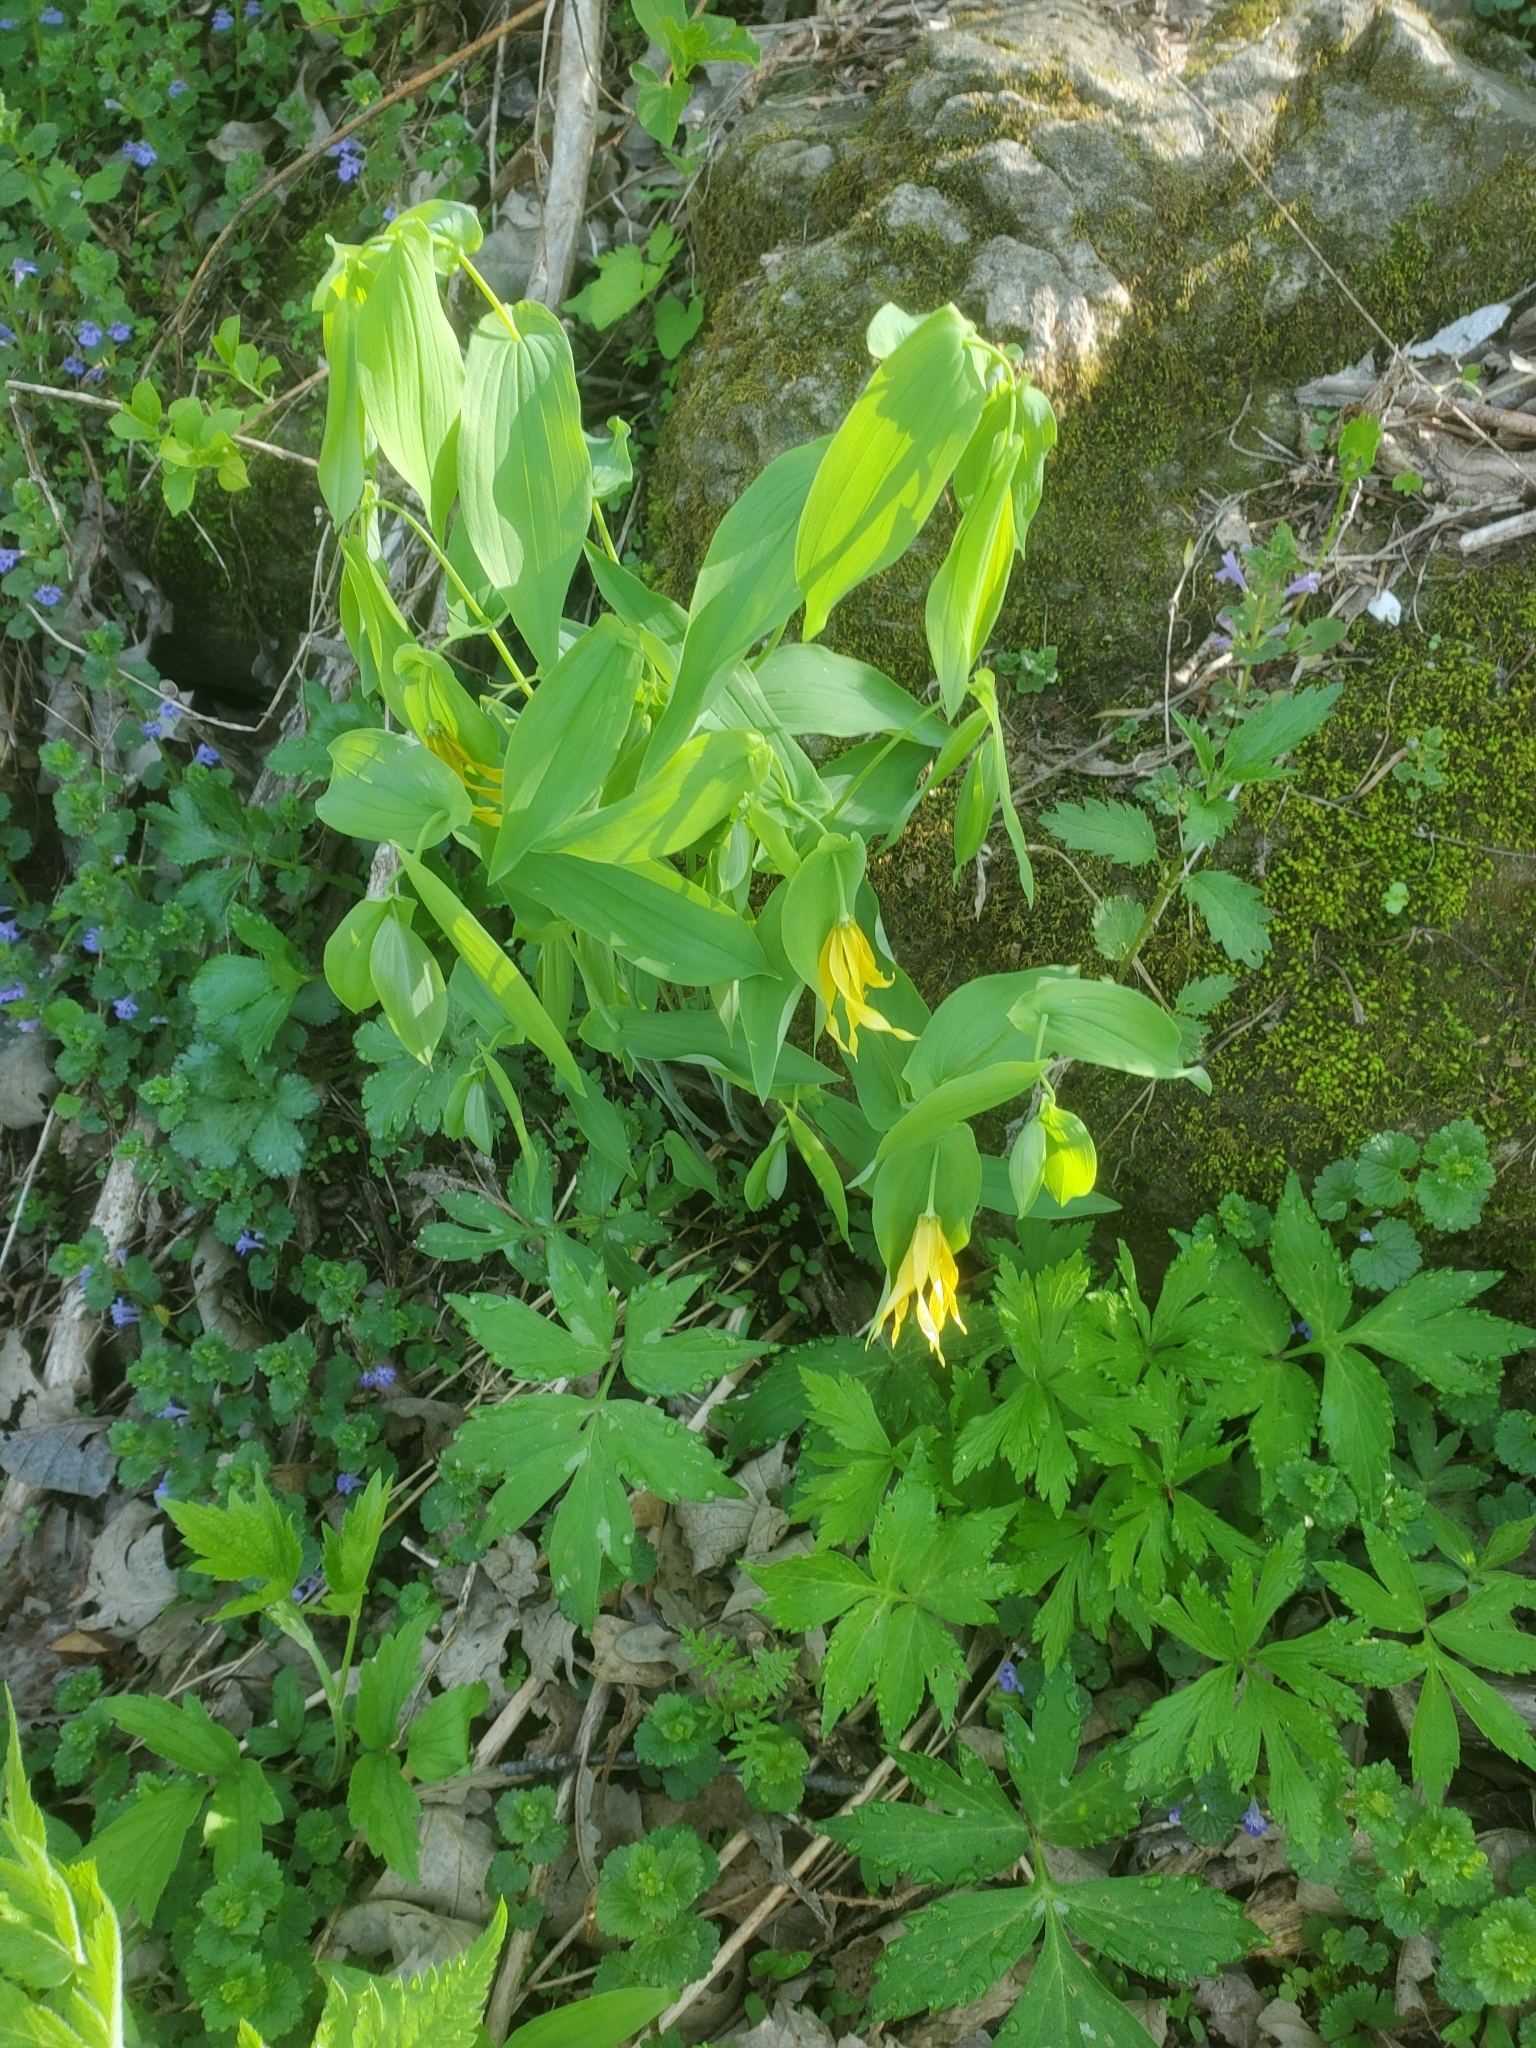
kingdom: Plantae
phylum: Tracheophyta
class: Liliopsida
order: Liliales
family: Colchicaceae
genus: Uvularia
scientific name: Uvularia grandiflora
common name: Bellwort
